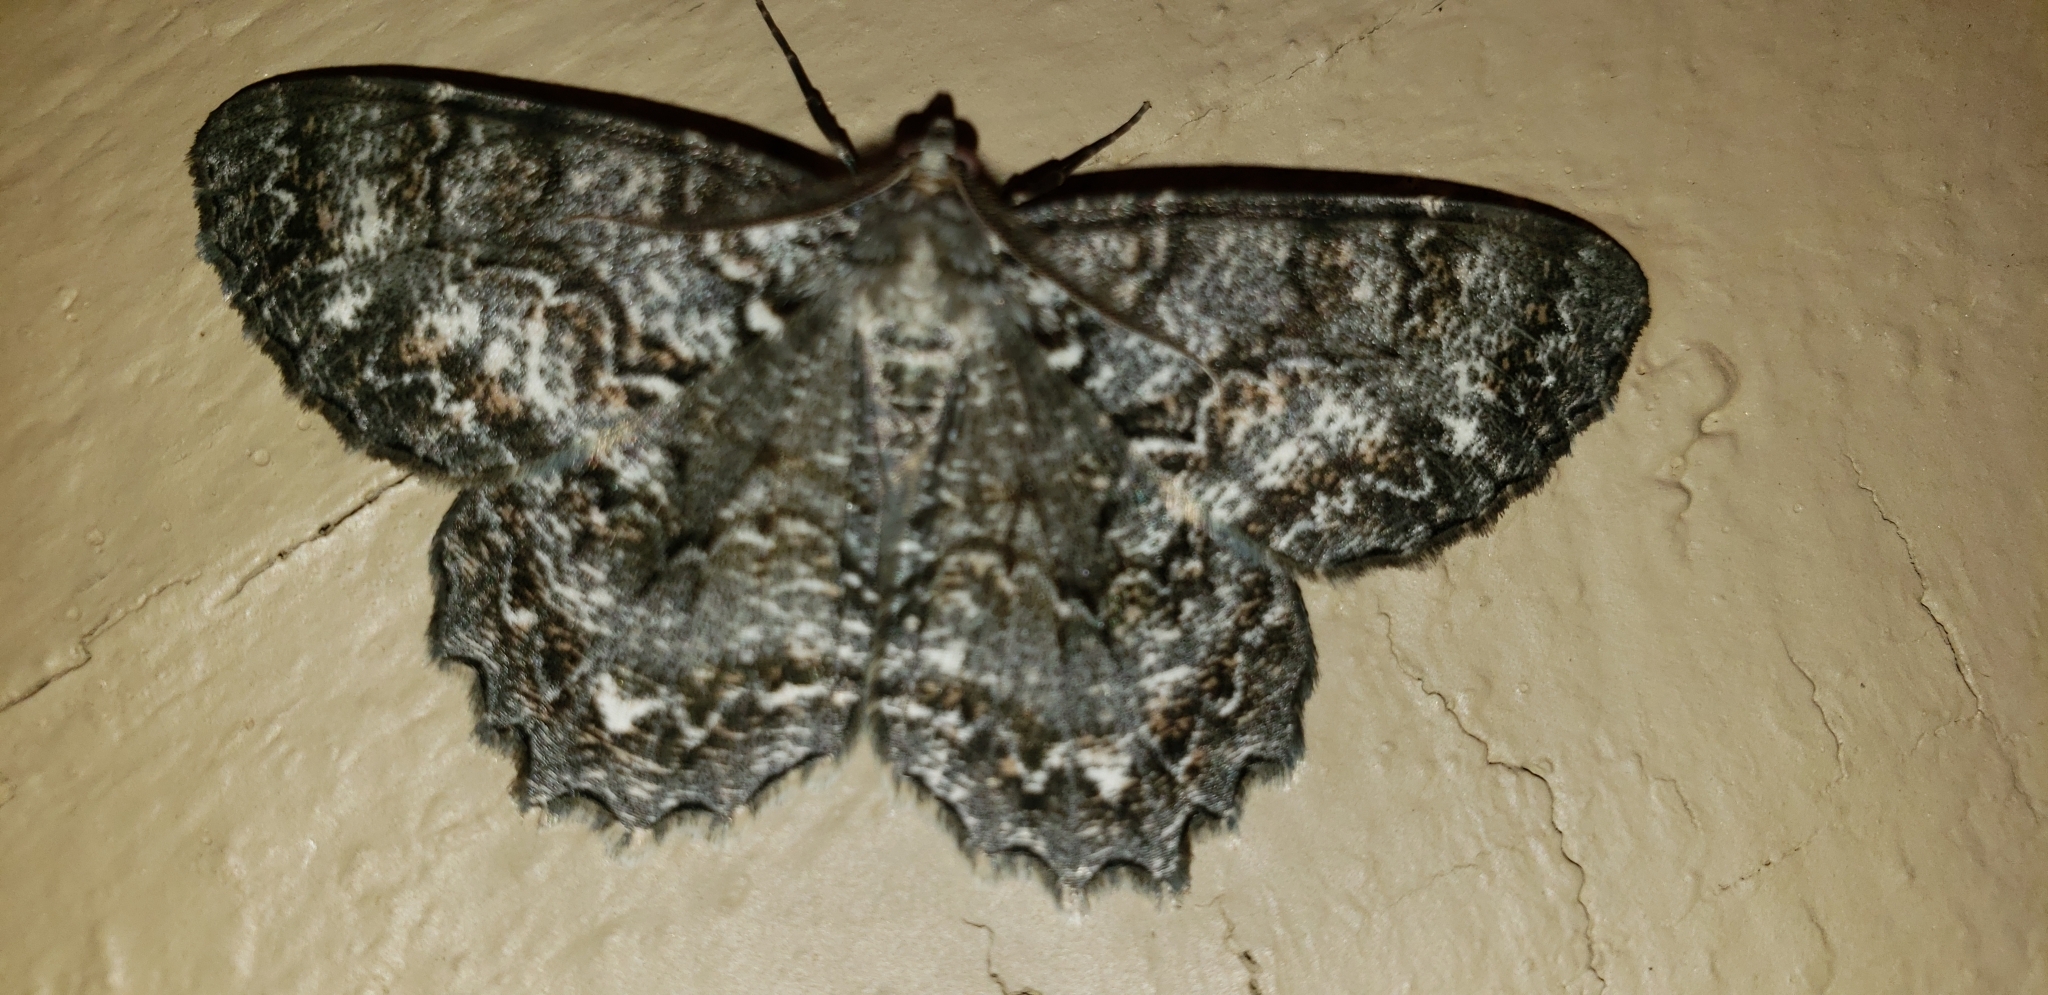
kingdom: Animalia
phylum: Arthropoda
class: Insecta
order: Lepidoptera
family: Geometridae
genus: Epimecis
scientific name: Epimecis hortaria
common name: Tulip-tree beauty
